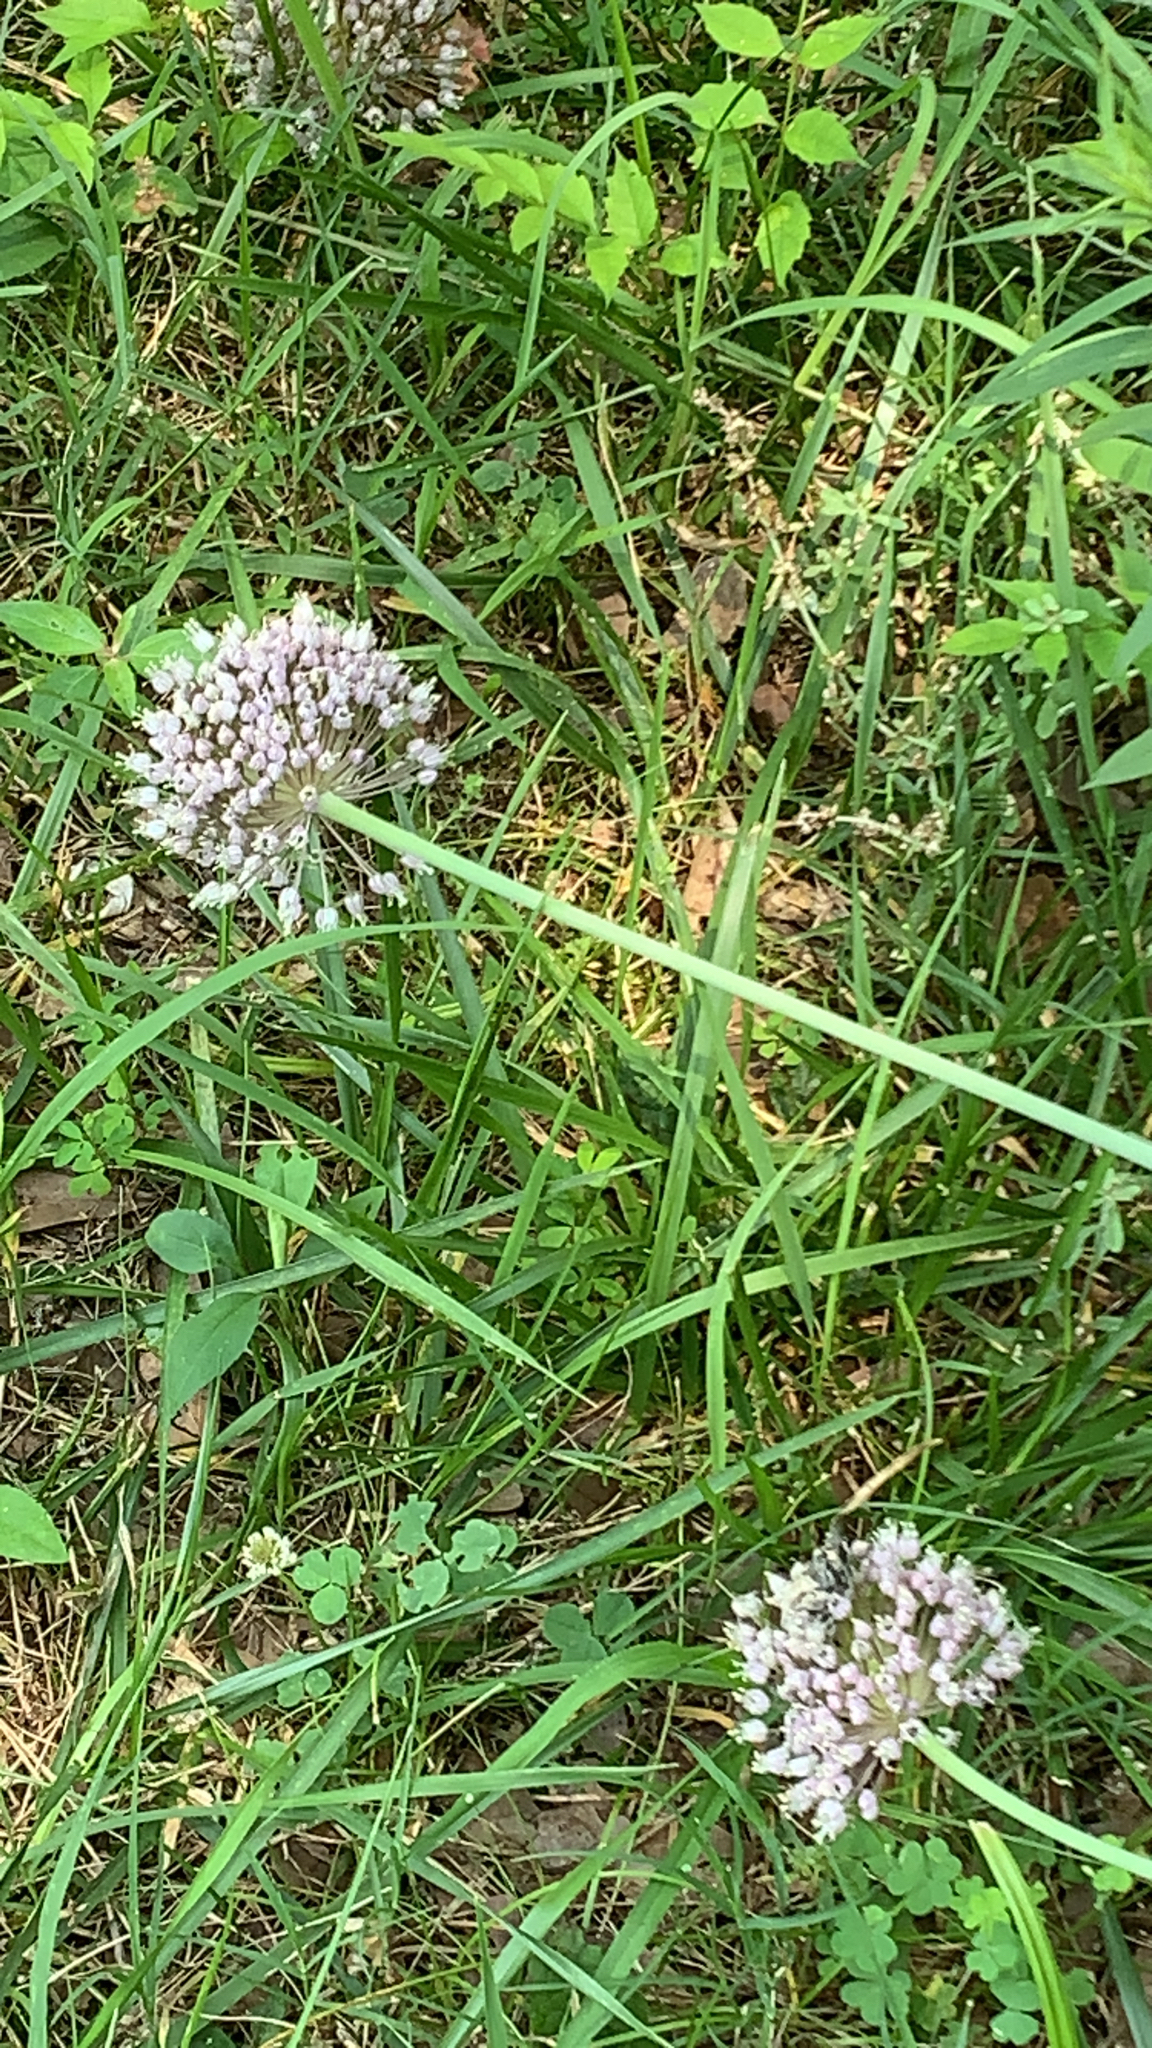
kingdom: Plantae
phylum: Tracheophyta
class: Liliopsida
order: Asparagales
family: Amaryllidaceae
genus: Allium
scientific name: Allium ampeloprasum
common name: Wild leek
